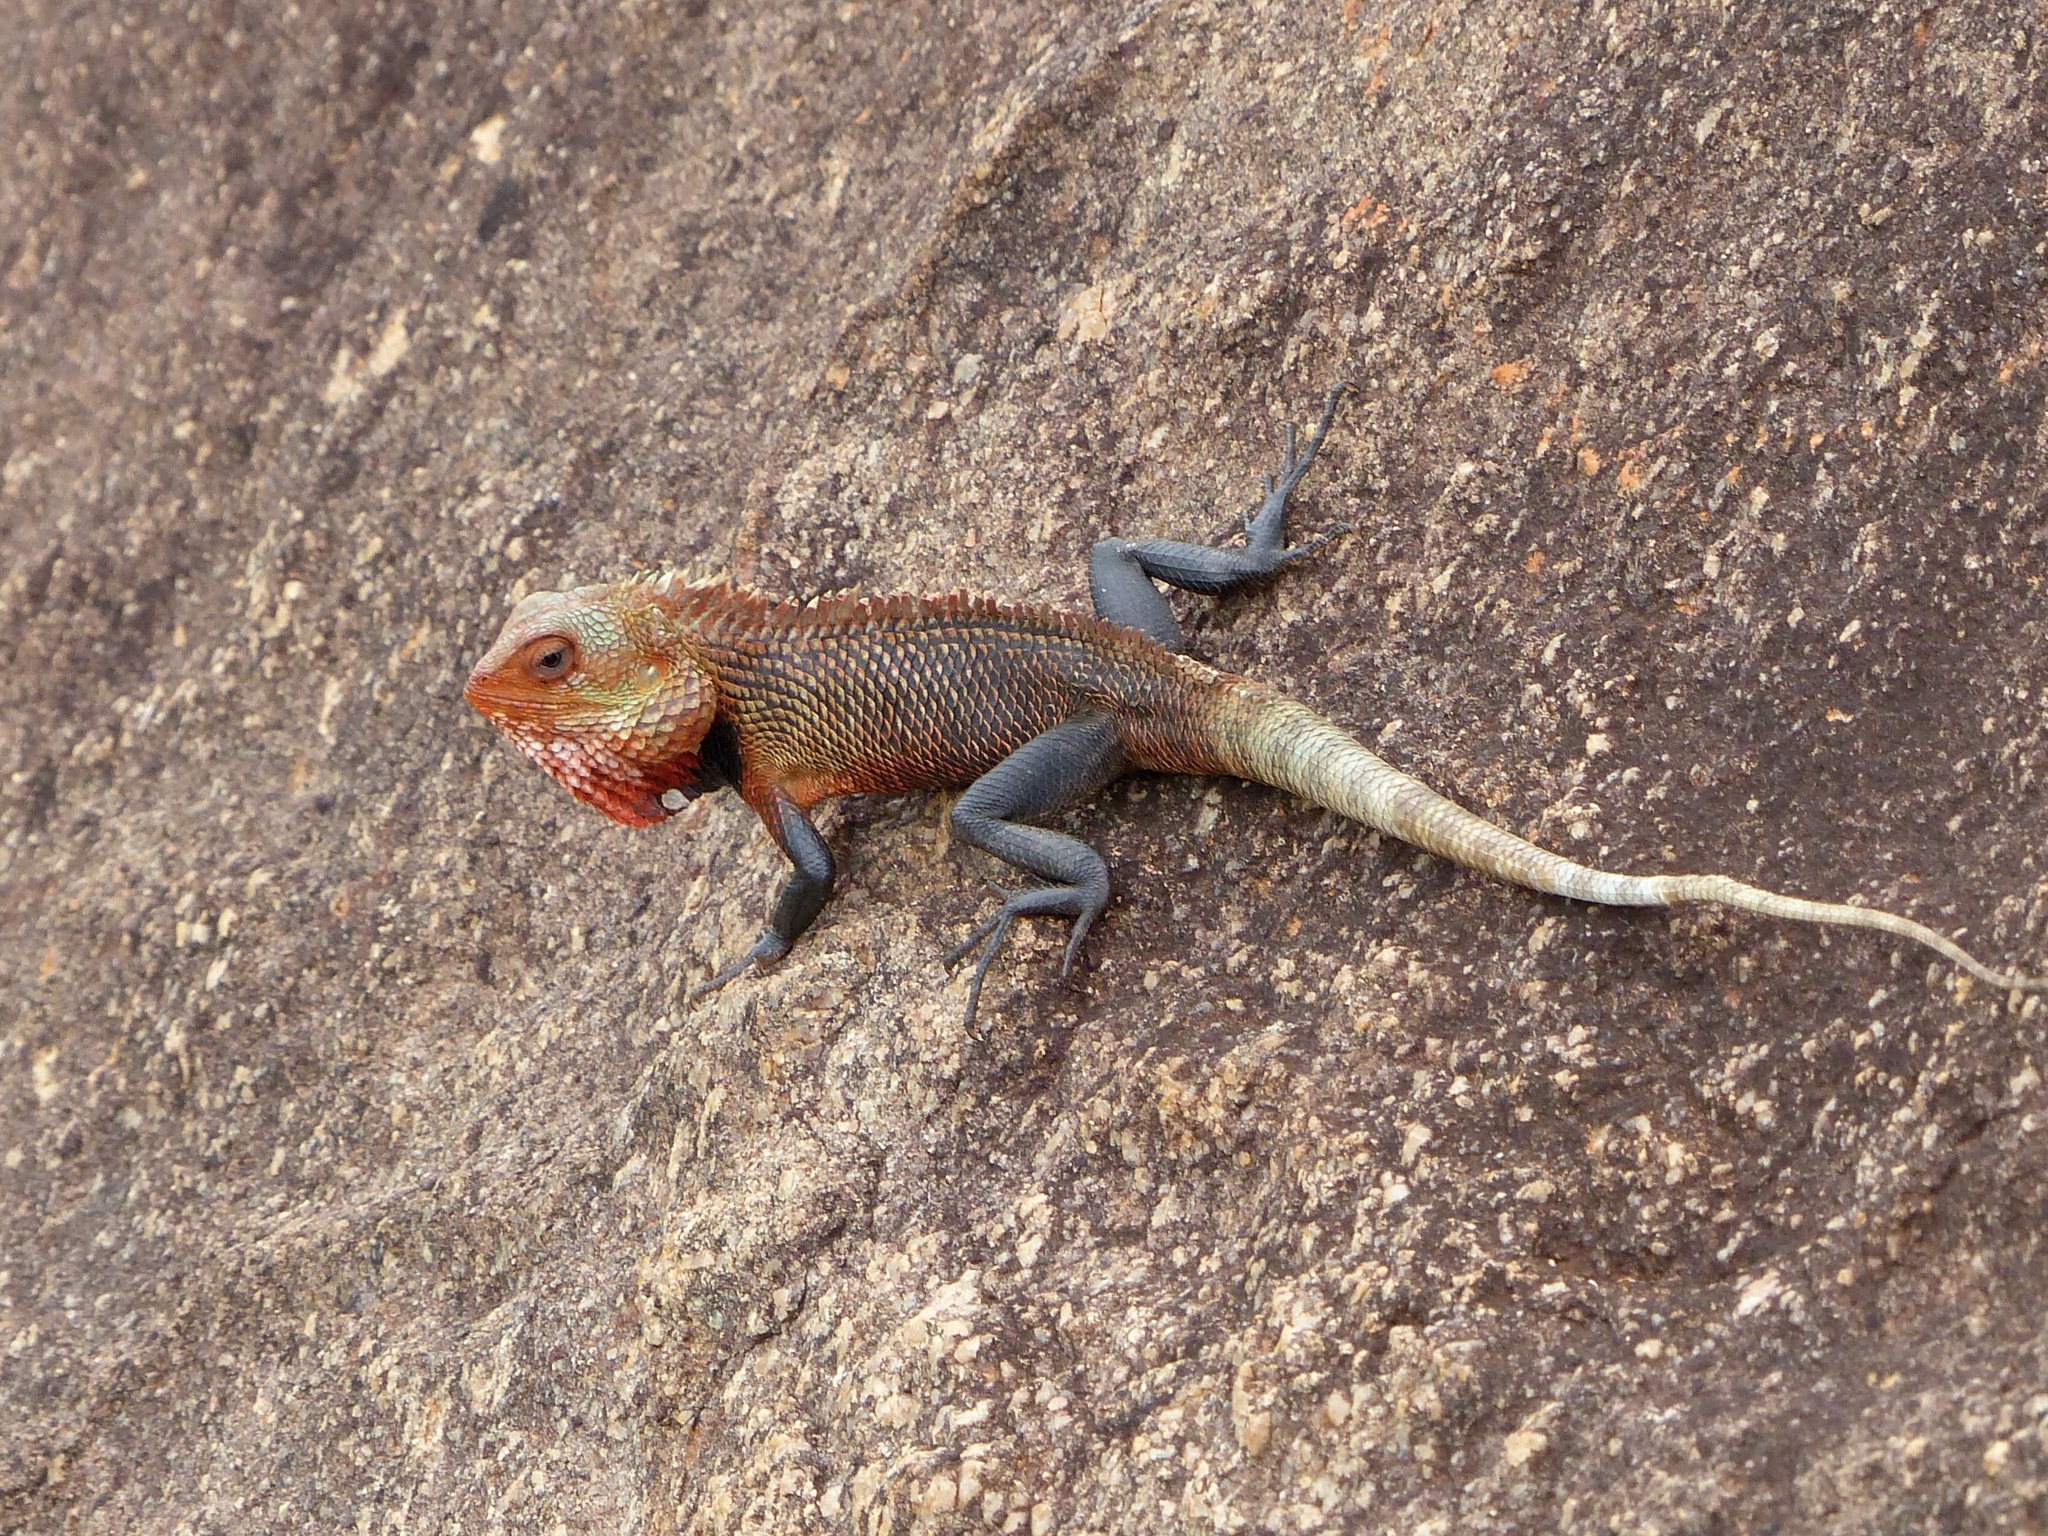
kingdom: Animalia
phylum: Chordata
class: Squamata
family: Agamidae
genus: Calotes
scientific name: Calotes versicolor
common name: Oriental garden lizard
